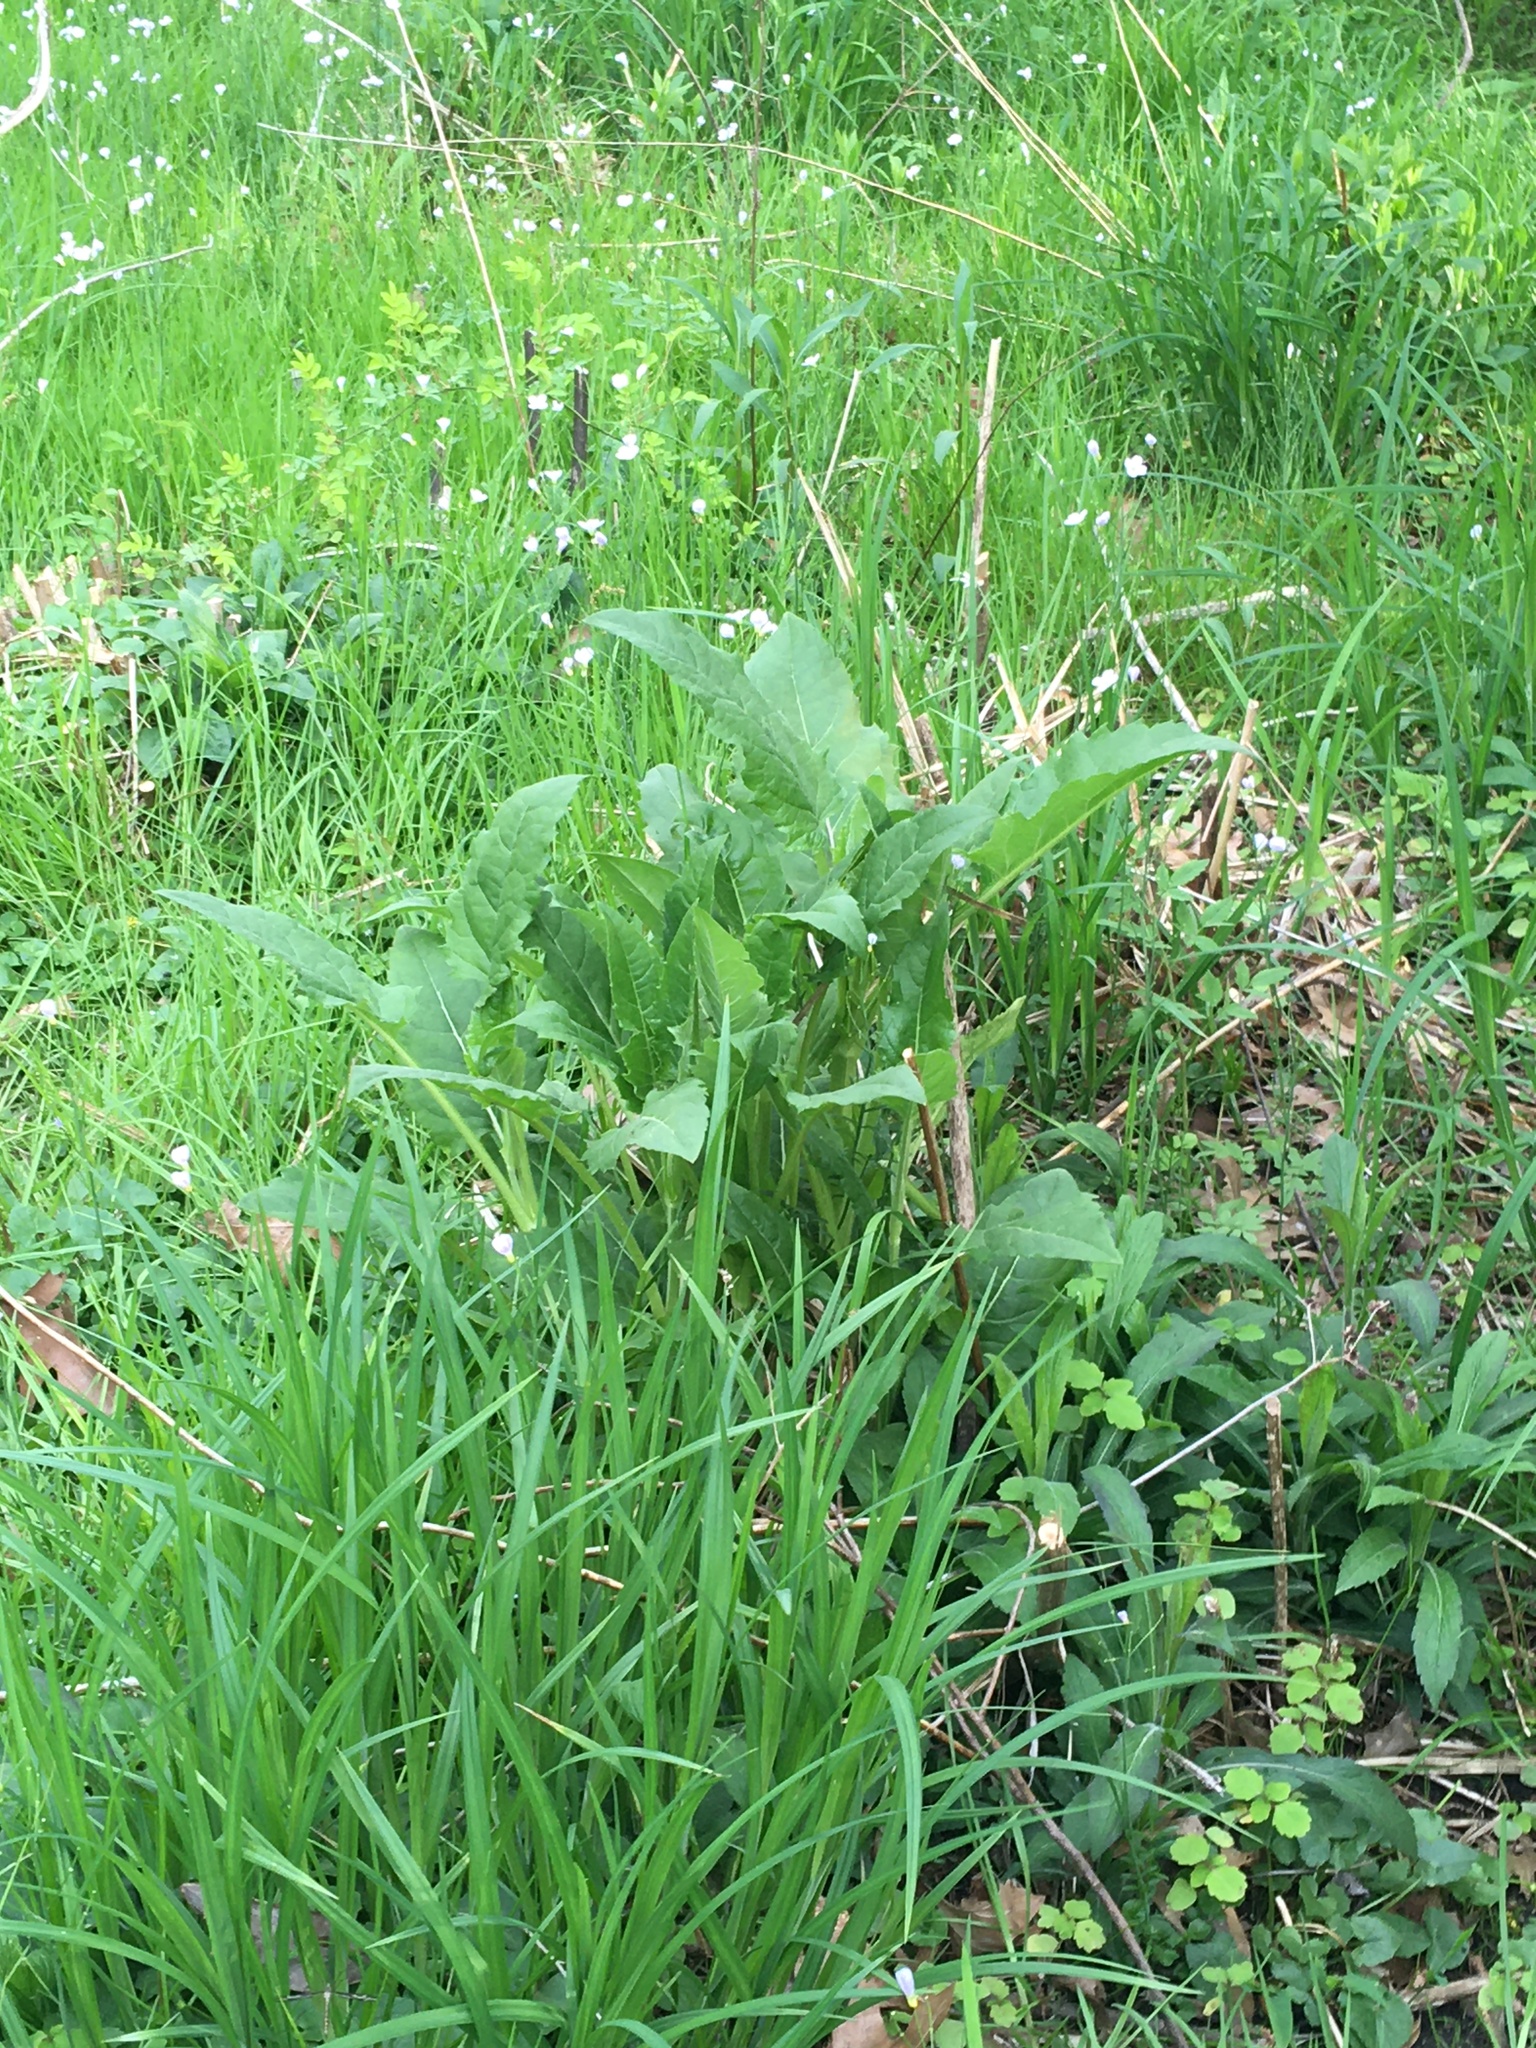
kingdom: Plantae
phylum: Tracheophyta
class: Magnoliopsida
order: Asterales
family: Asteraceae
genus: Silphium
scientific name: Silphium perfoliatum
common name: Cup-plant
